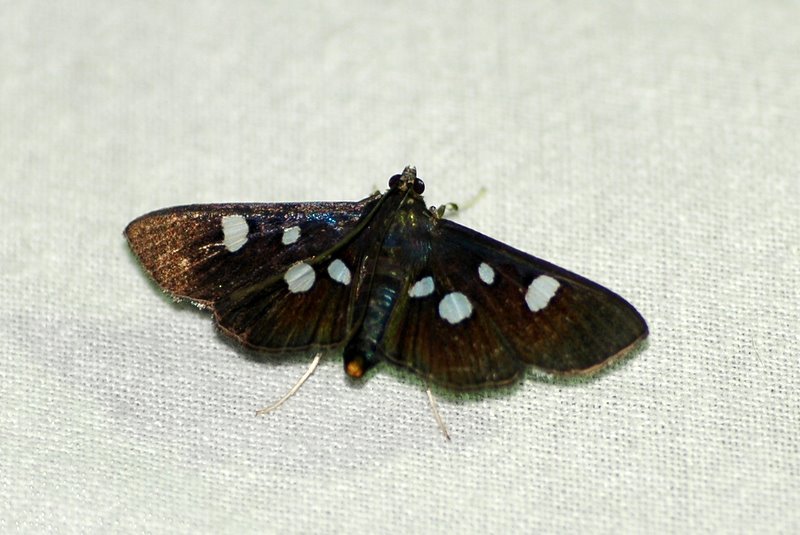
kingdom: Animalia
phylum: Arthropoda
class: Insecta
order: Lepidoptera
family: Crambidae
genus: Pygospila
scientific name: Pygospila
